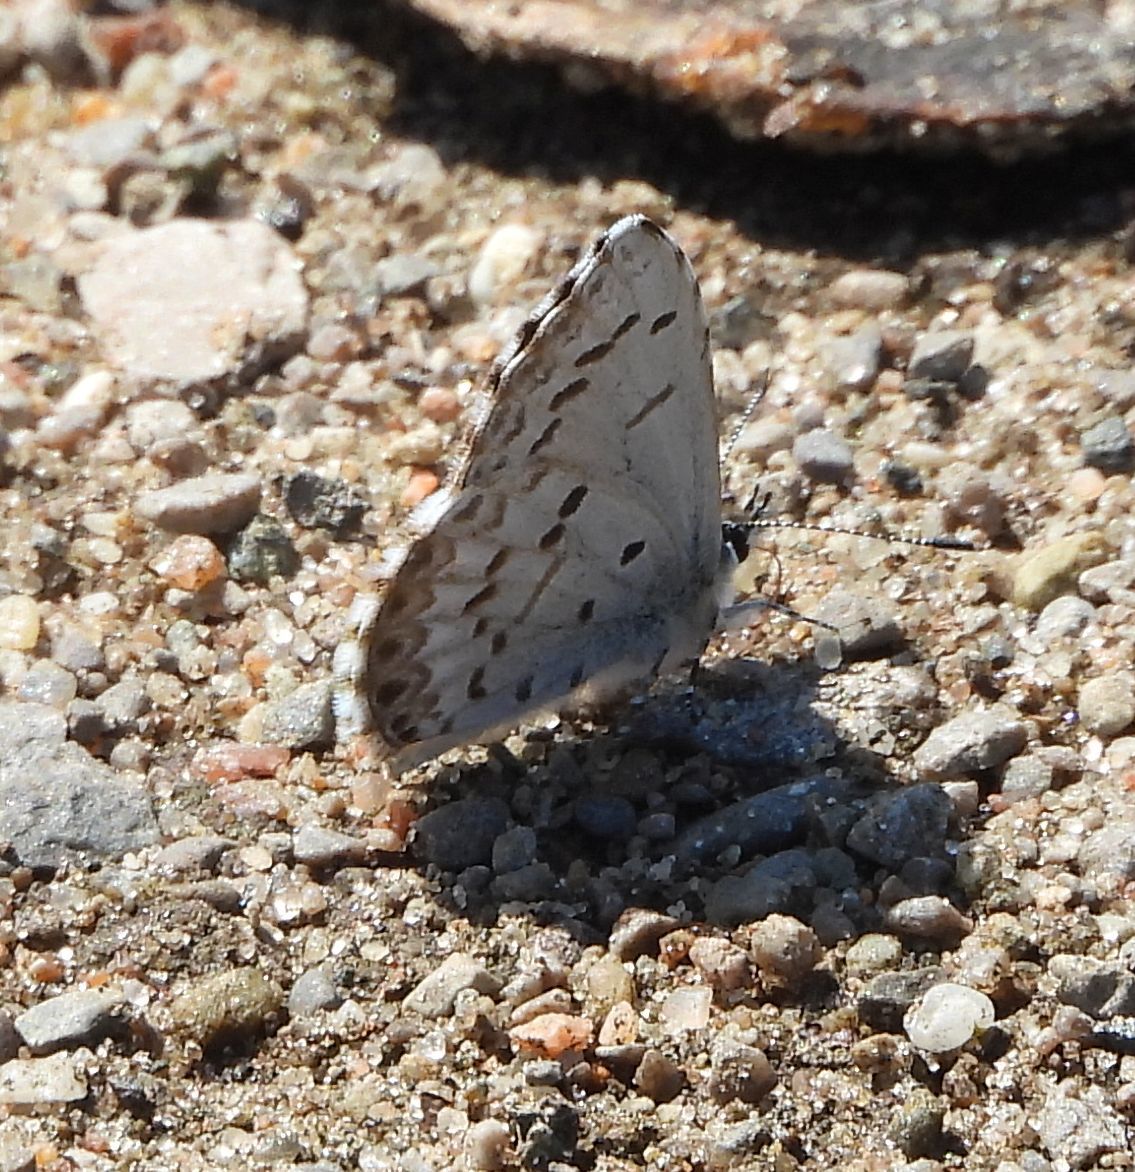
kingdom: Animalia
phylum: Arthropoda
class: Insecta
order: Lepidoptera
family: Lycaenidae
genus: Celastrina
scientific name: Celastrina lucia
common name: Lucia azure
